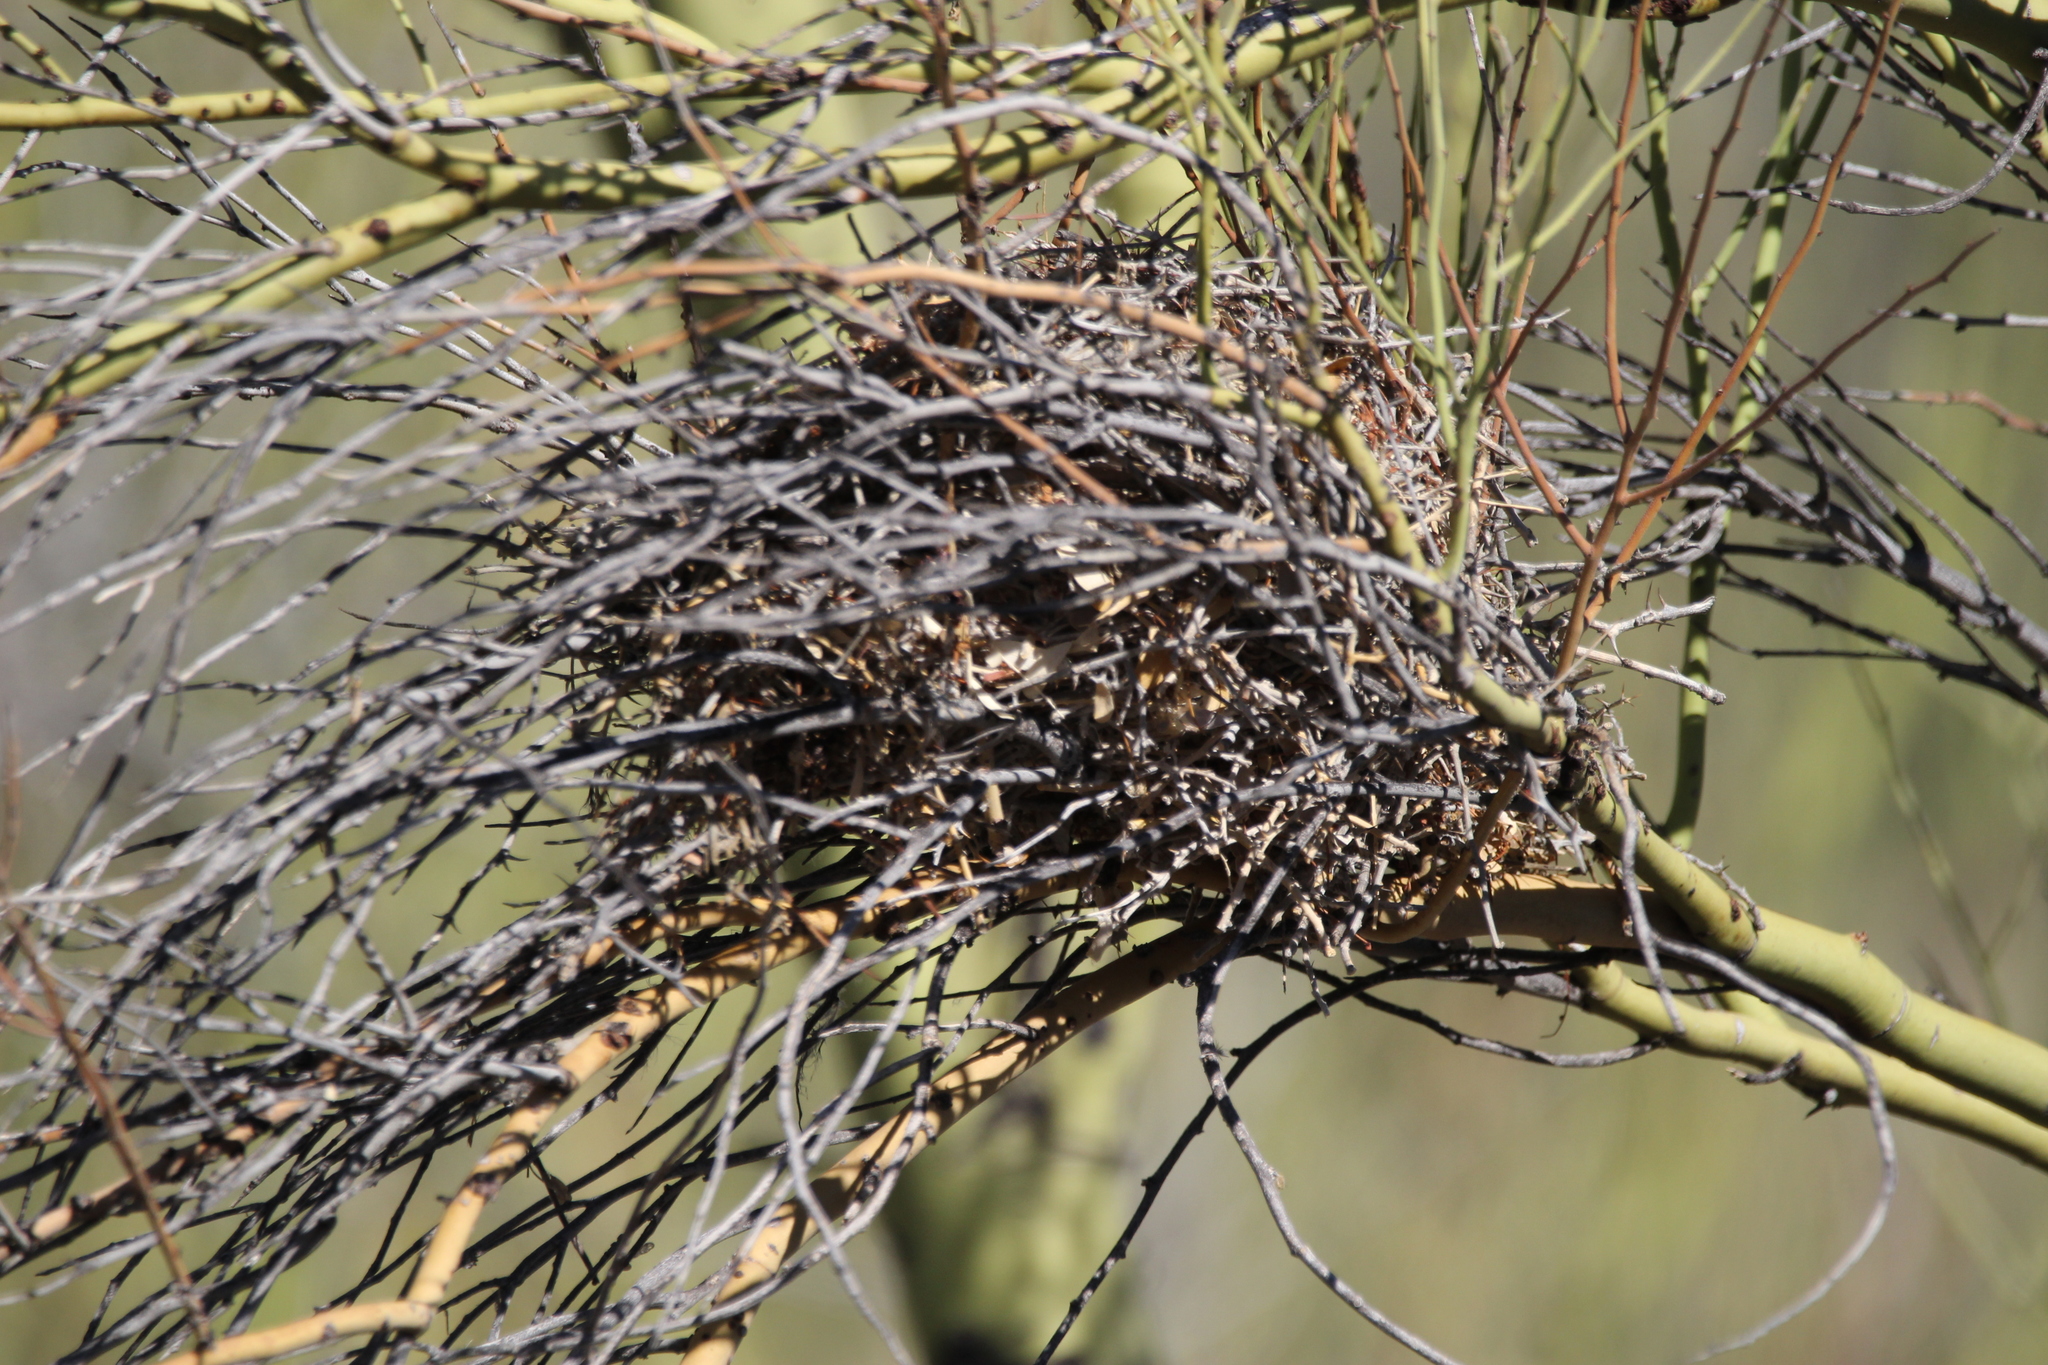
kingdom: Animalia
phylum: Chordata
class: Aves
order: Passeriformes
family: Remizidae
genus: Auriparus
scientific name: Auriparus flaviceps
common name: Verdin
